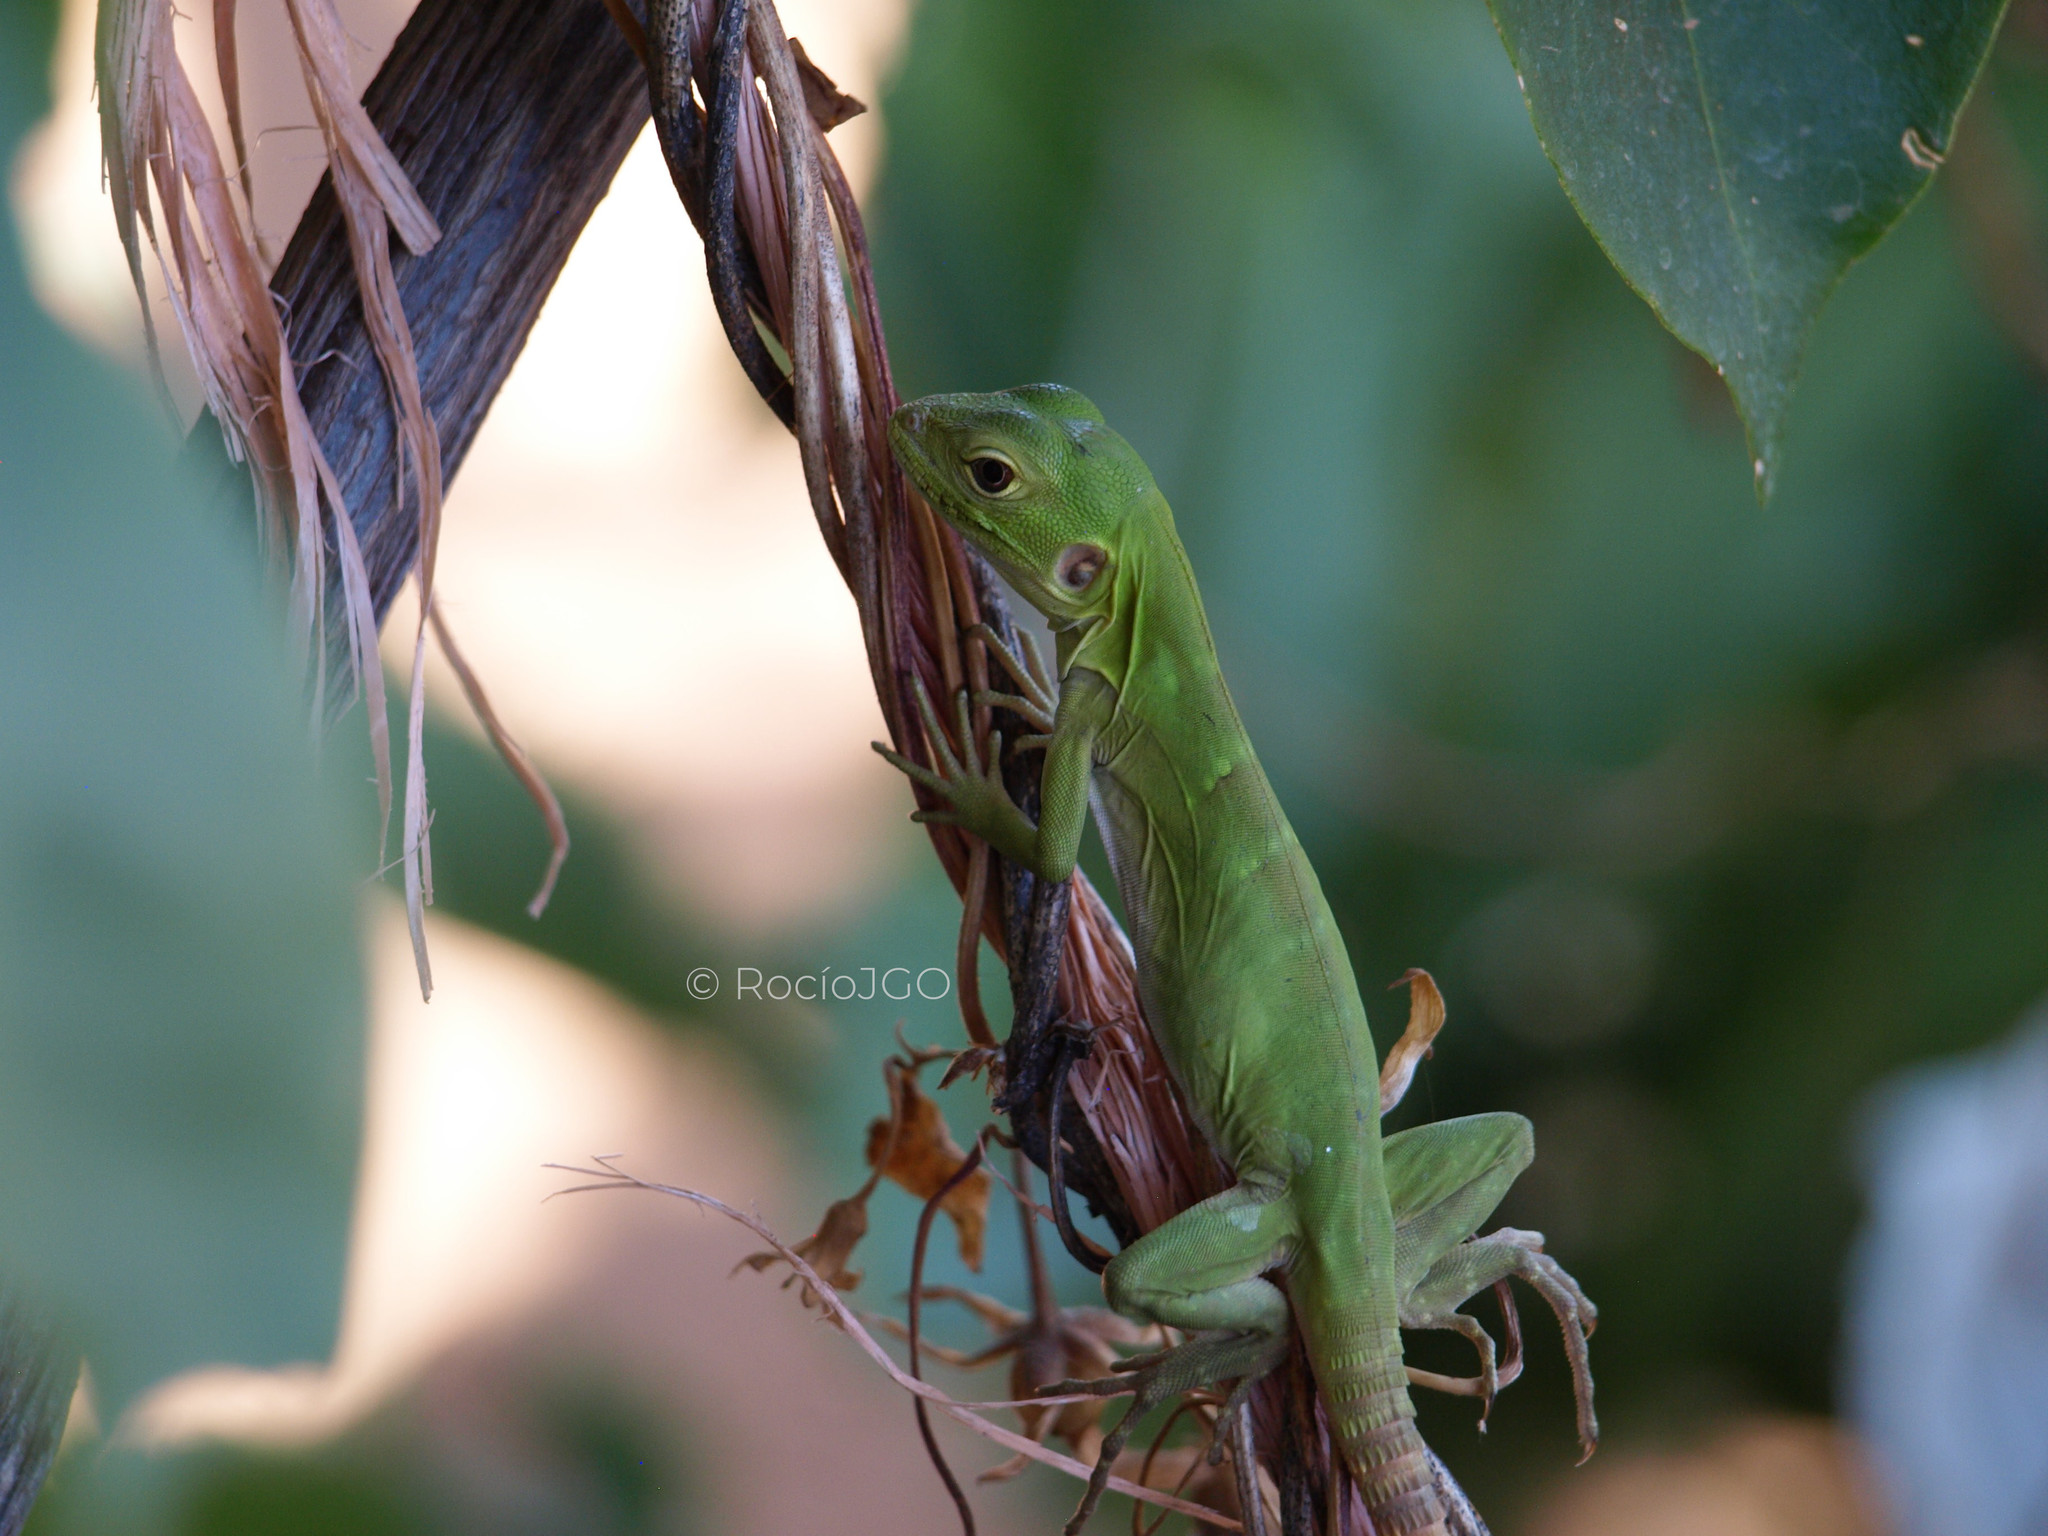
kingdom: Animalia
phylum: Chordata
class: Squamata
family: Iguanidae
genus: Ctenosaura
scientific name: Ctenosaura macrolopha
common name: Cape spinytail iguana
